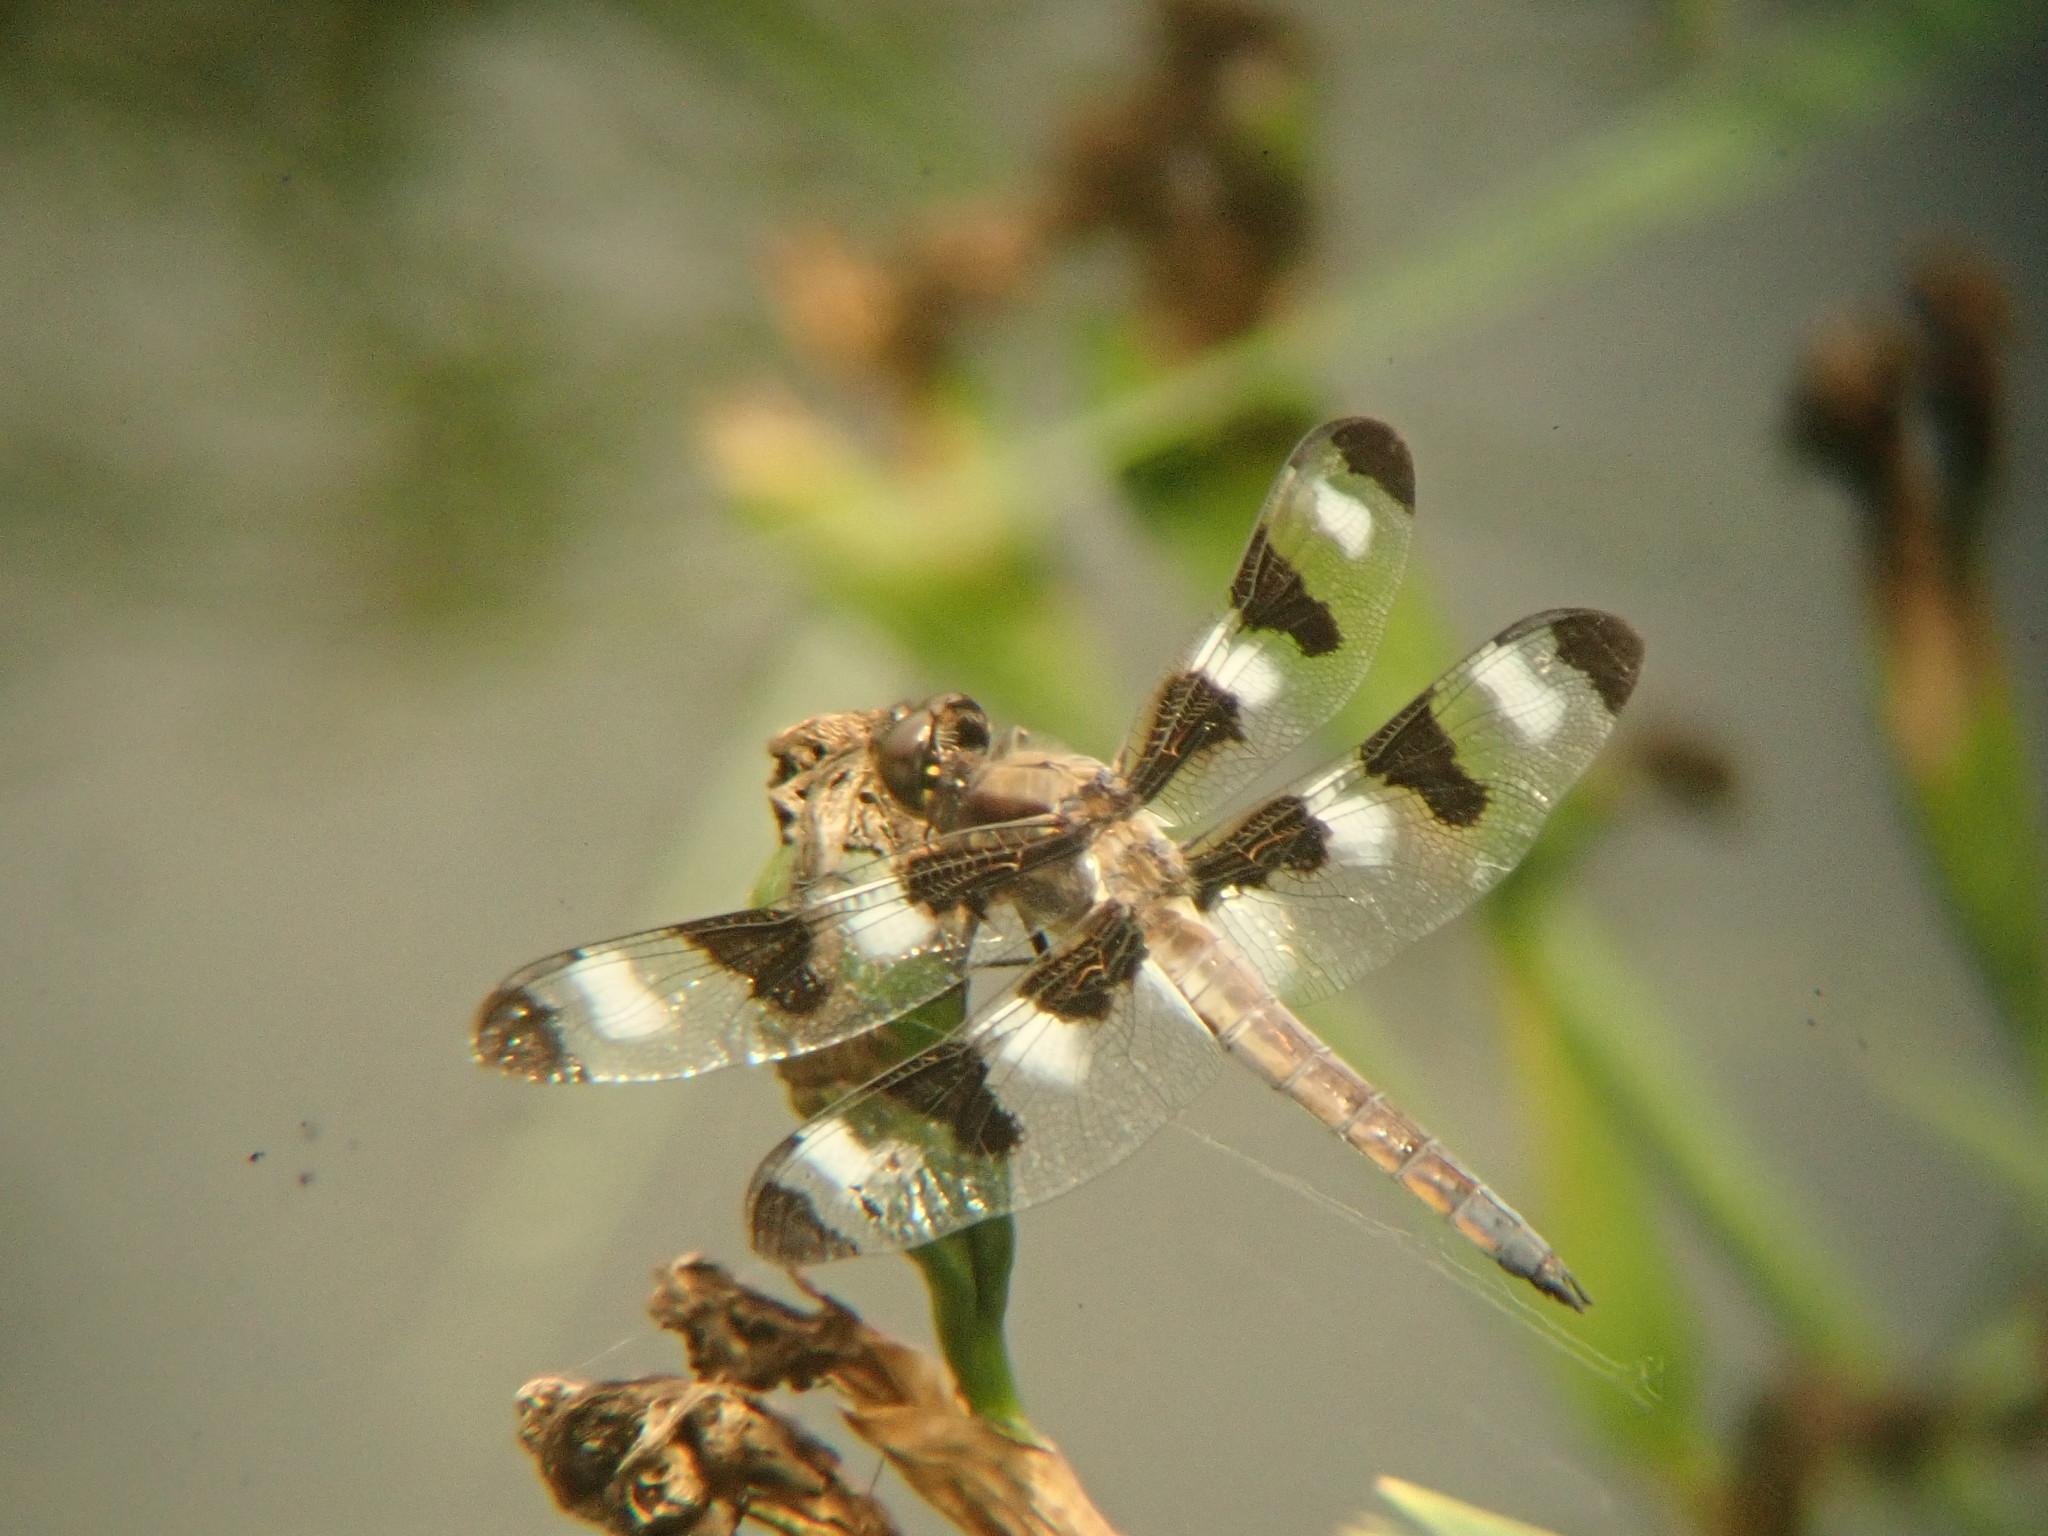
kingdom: Animalia
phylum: Arthropoda
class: Insecta
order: Odonata
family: Libellulidae
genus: Libellula
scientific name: Libellula pulchella
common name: Twelve-spotted skimmer
